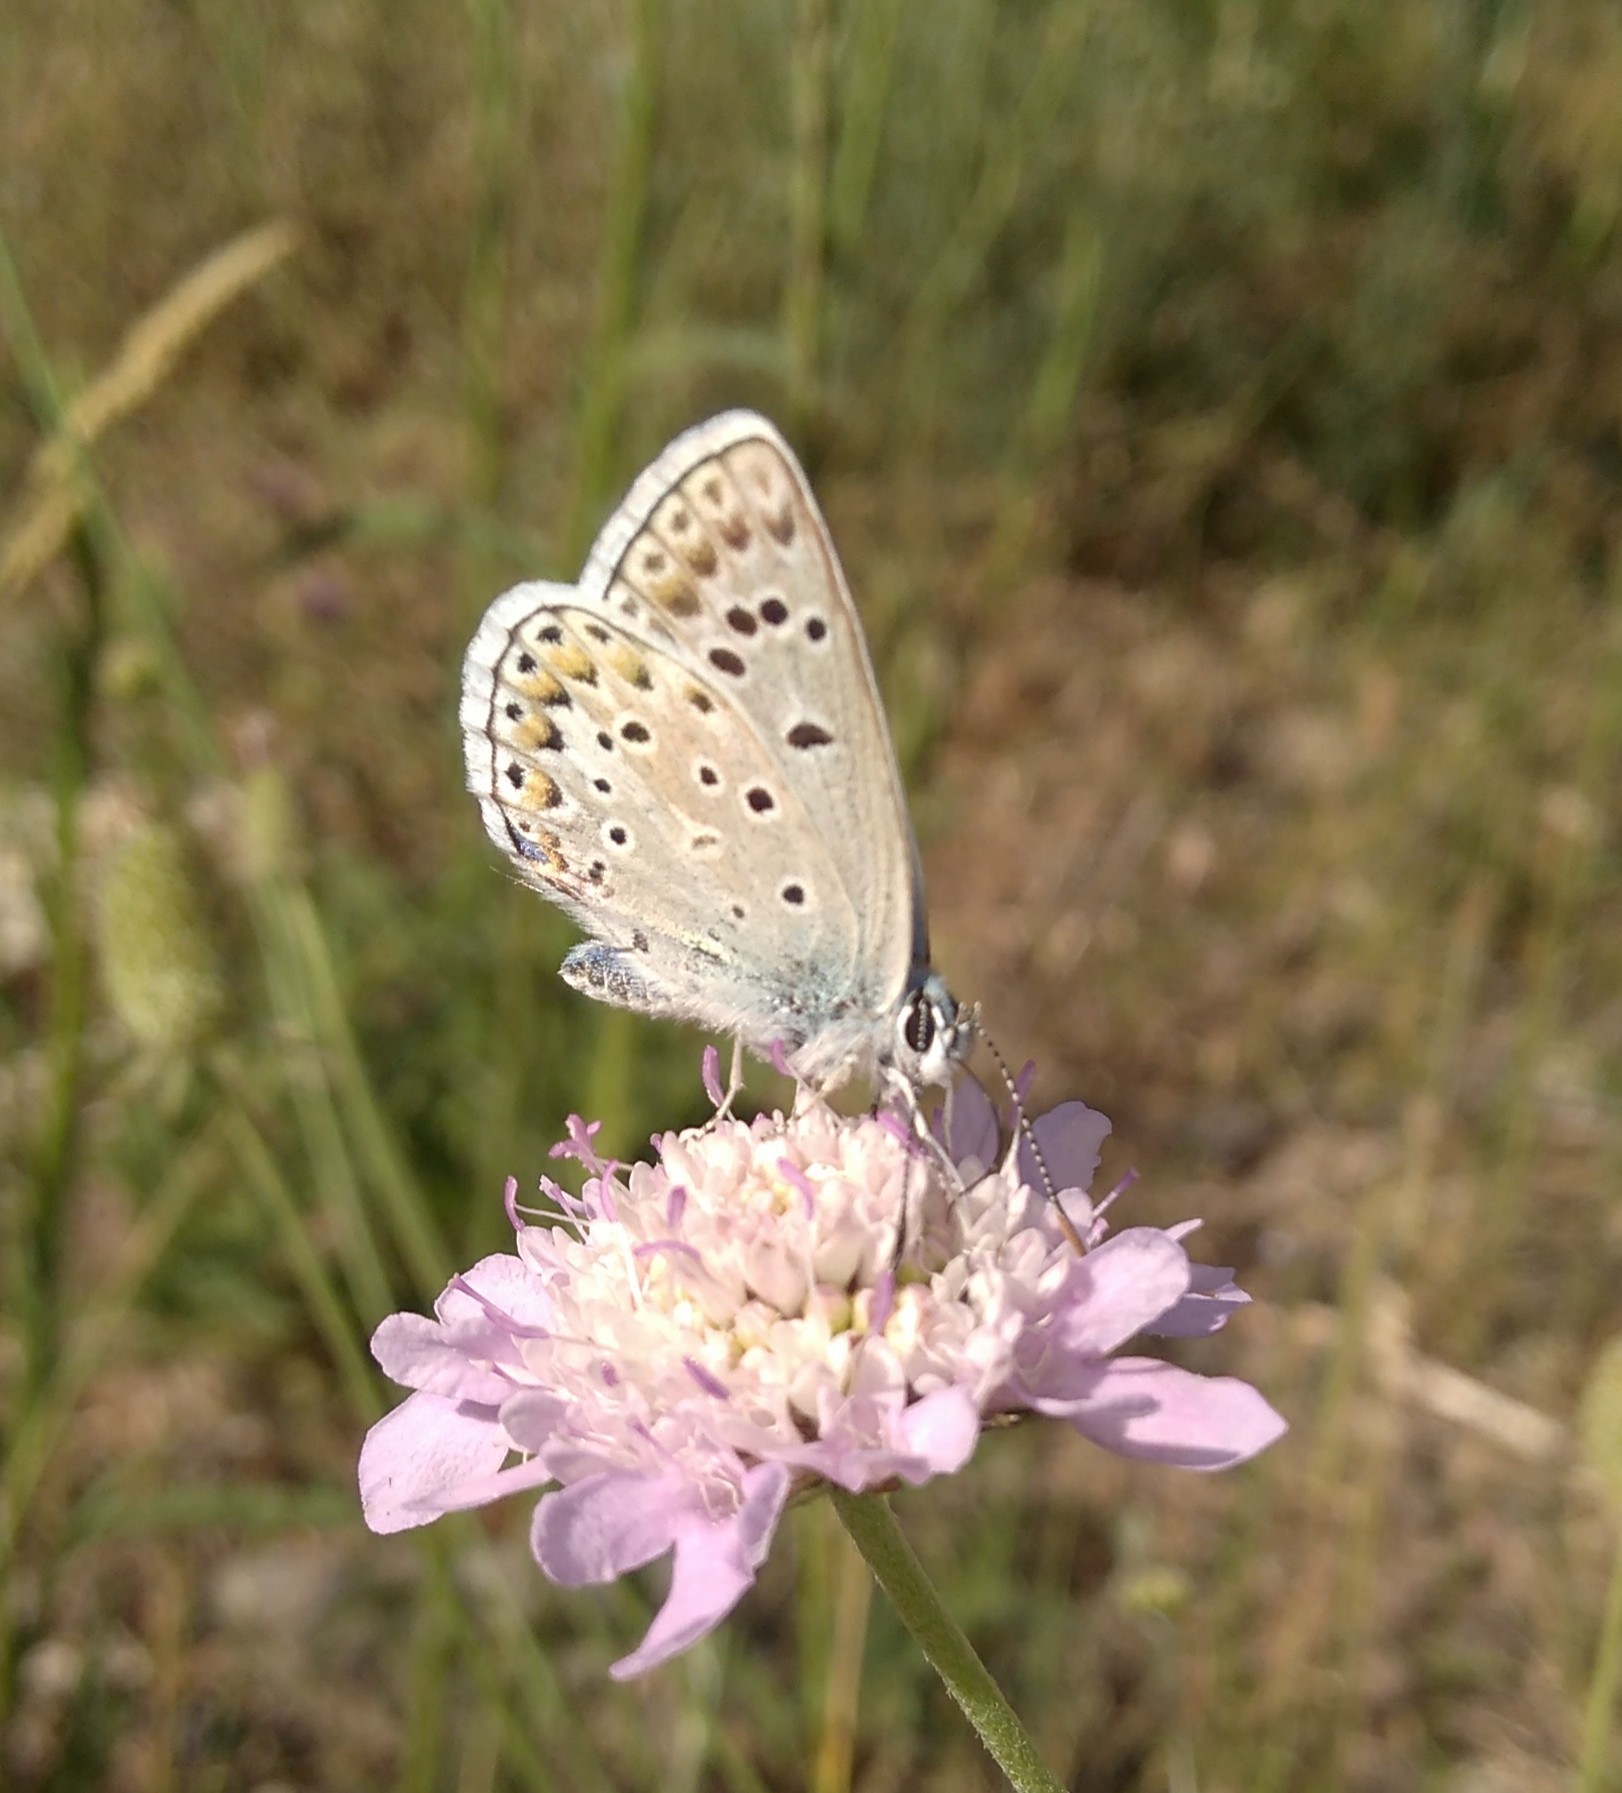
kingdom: Animalia
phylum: Arthropoda
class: Insecta
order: Lepidoptera
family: Lycaenidae
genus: Plebicula
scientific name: Plebicula escheri
